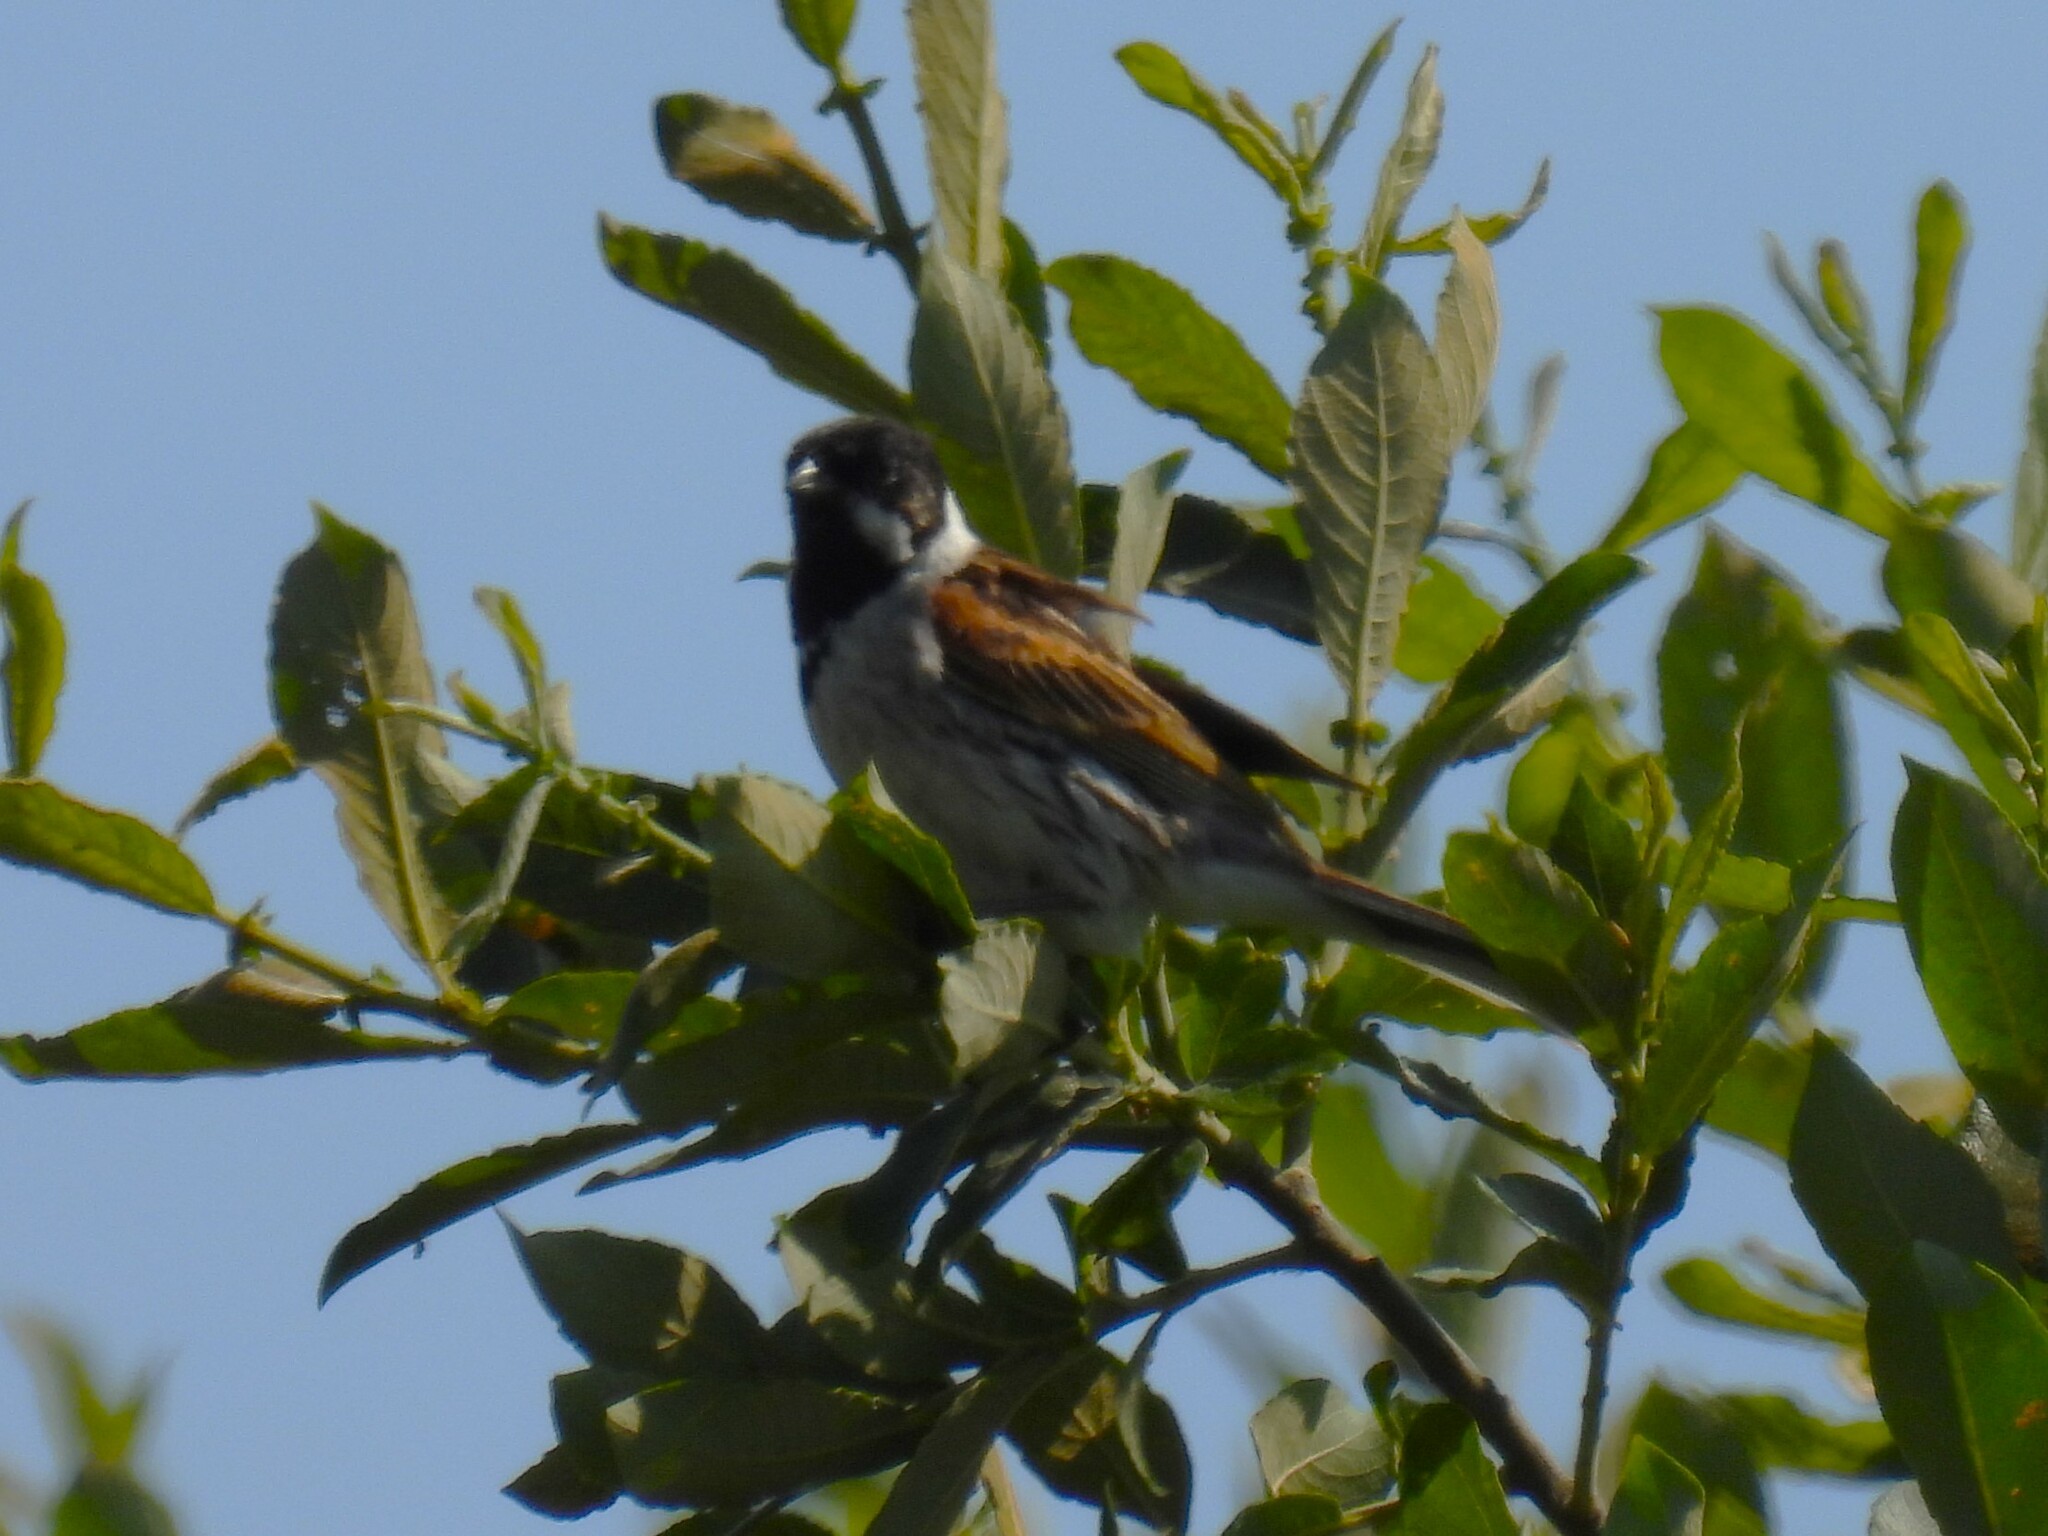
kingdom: Animalia
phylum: Chordata
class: Aves
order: Passeriformes
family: Emberizidae
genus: Emberiza
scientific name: Emberiza schoeniclus
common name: Reed bunting
